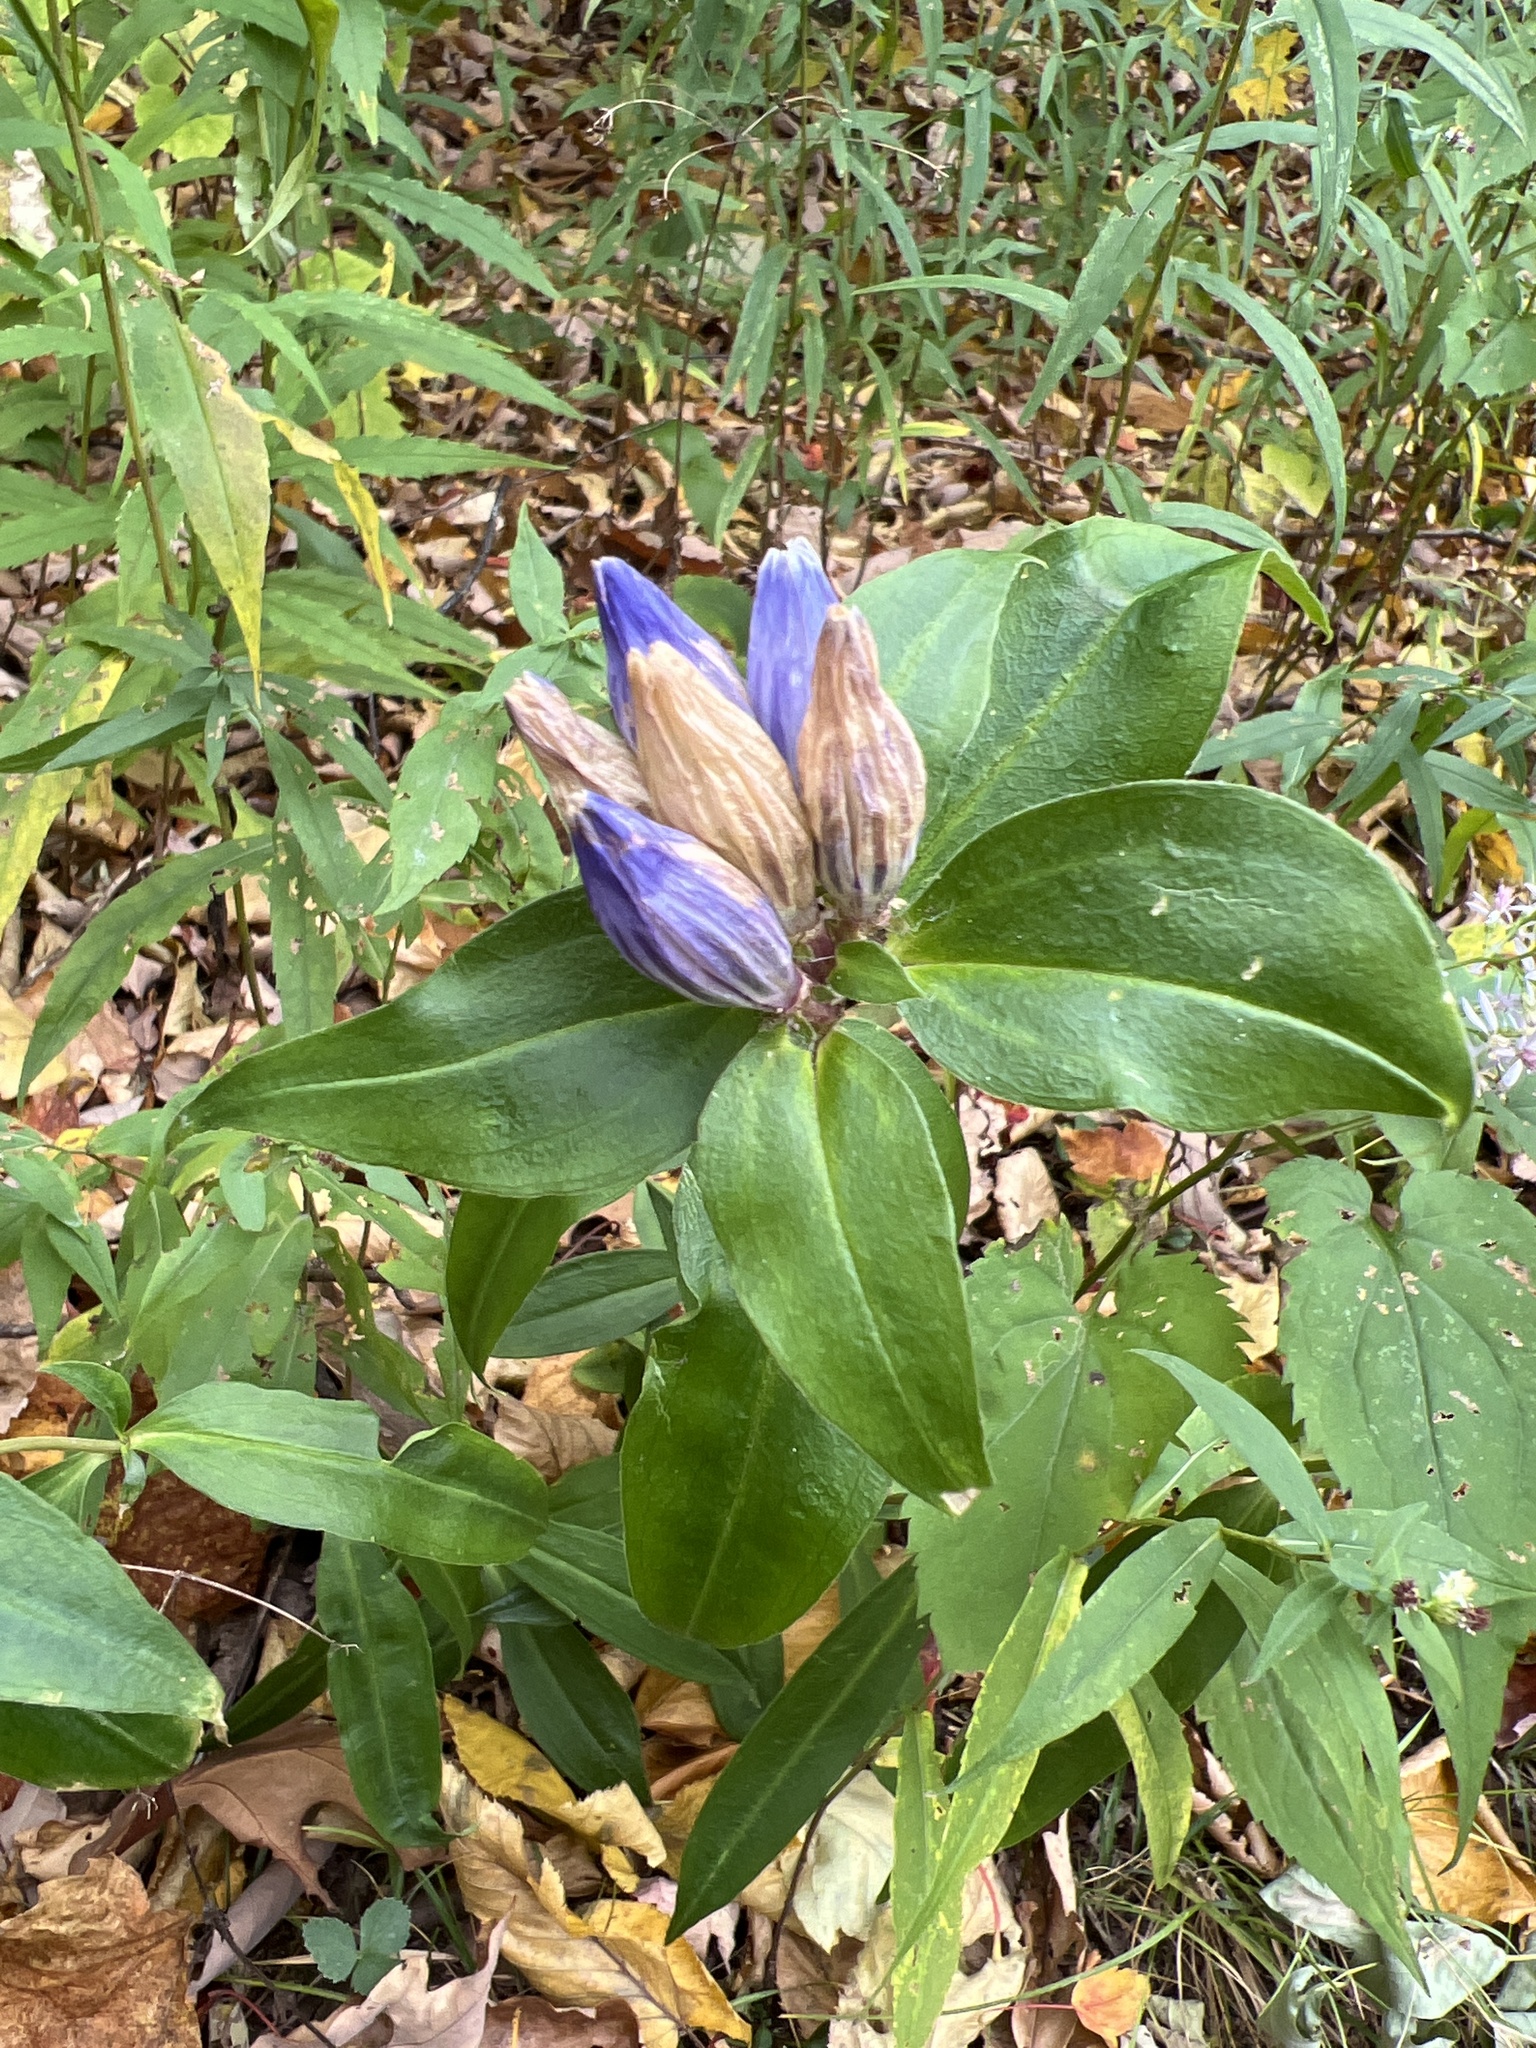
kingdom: Plantae
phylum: Tracheophyta
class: Magnoliopsida
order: Gentianales
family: Gentianaceae
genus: Gentiana
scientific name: Gentiana clausa
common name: Blind gentian
